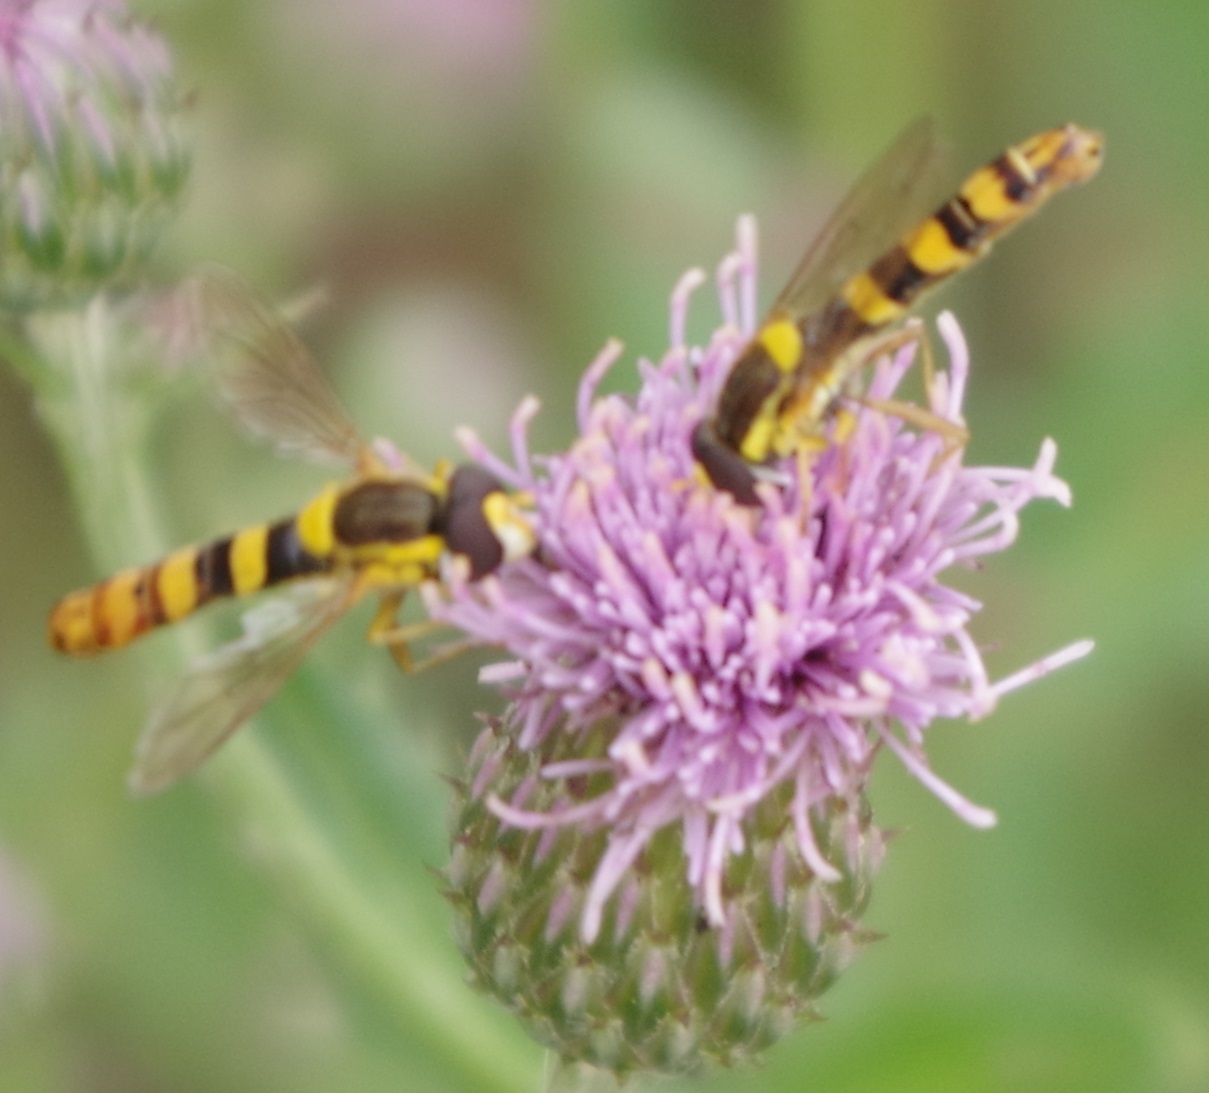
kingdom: Animalia
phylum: Arthropoda
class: Insecta
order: Diptera
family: Syrphidae
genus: Sphaerophoria
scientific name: Sphaerophoria scripta
